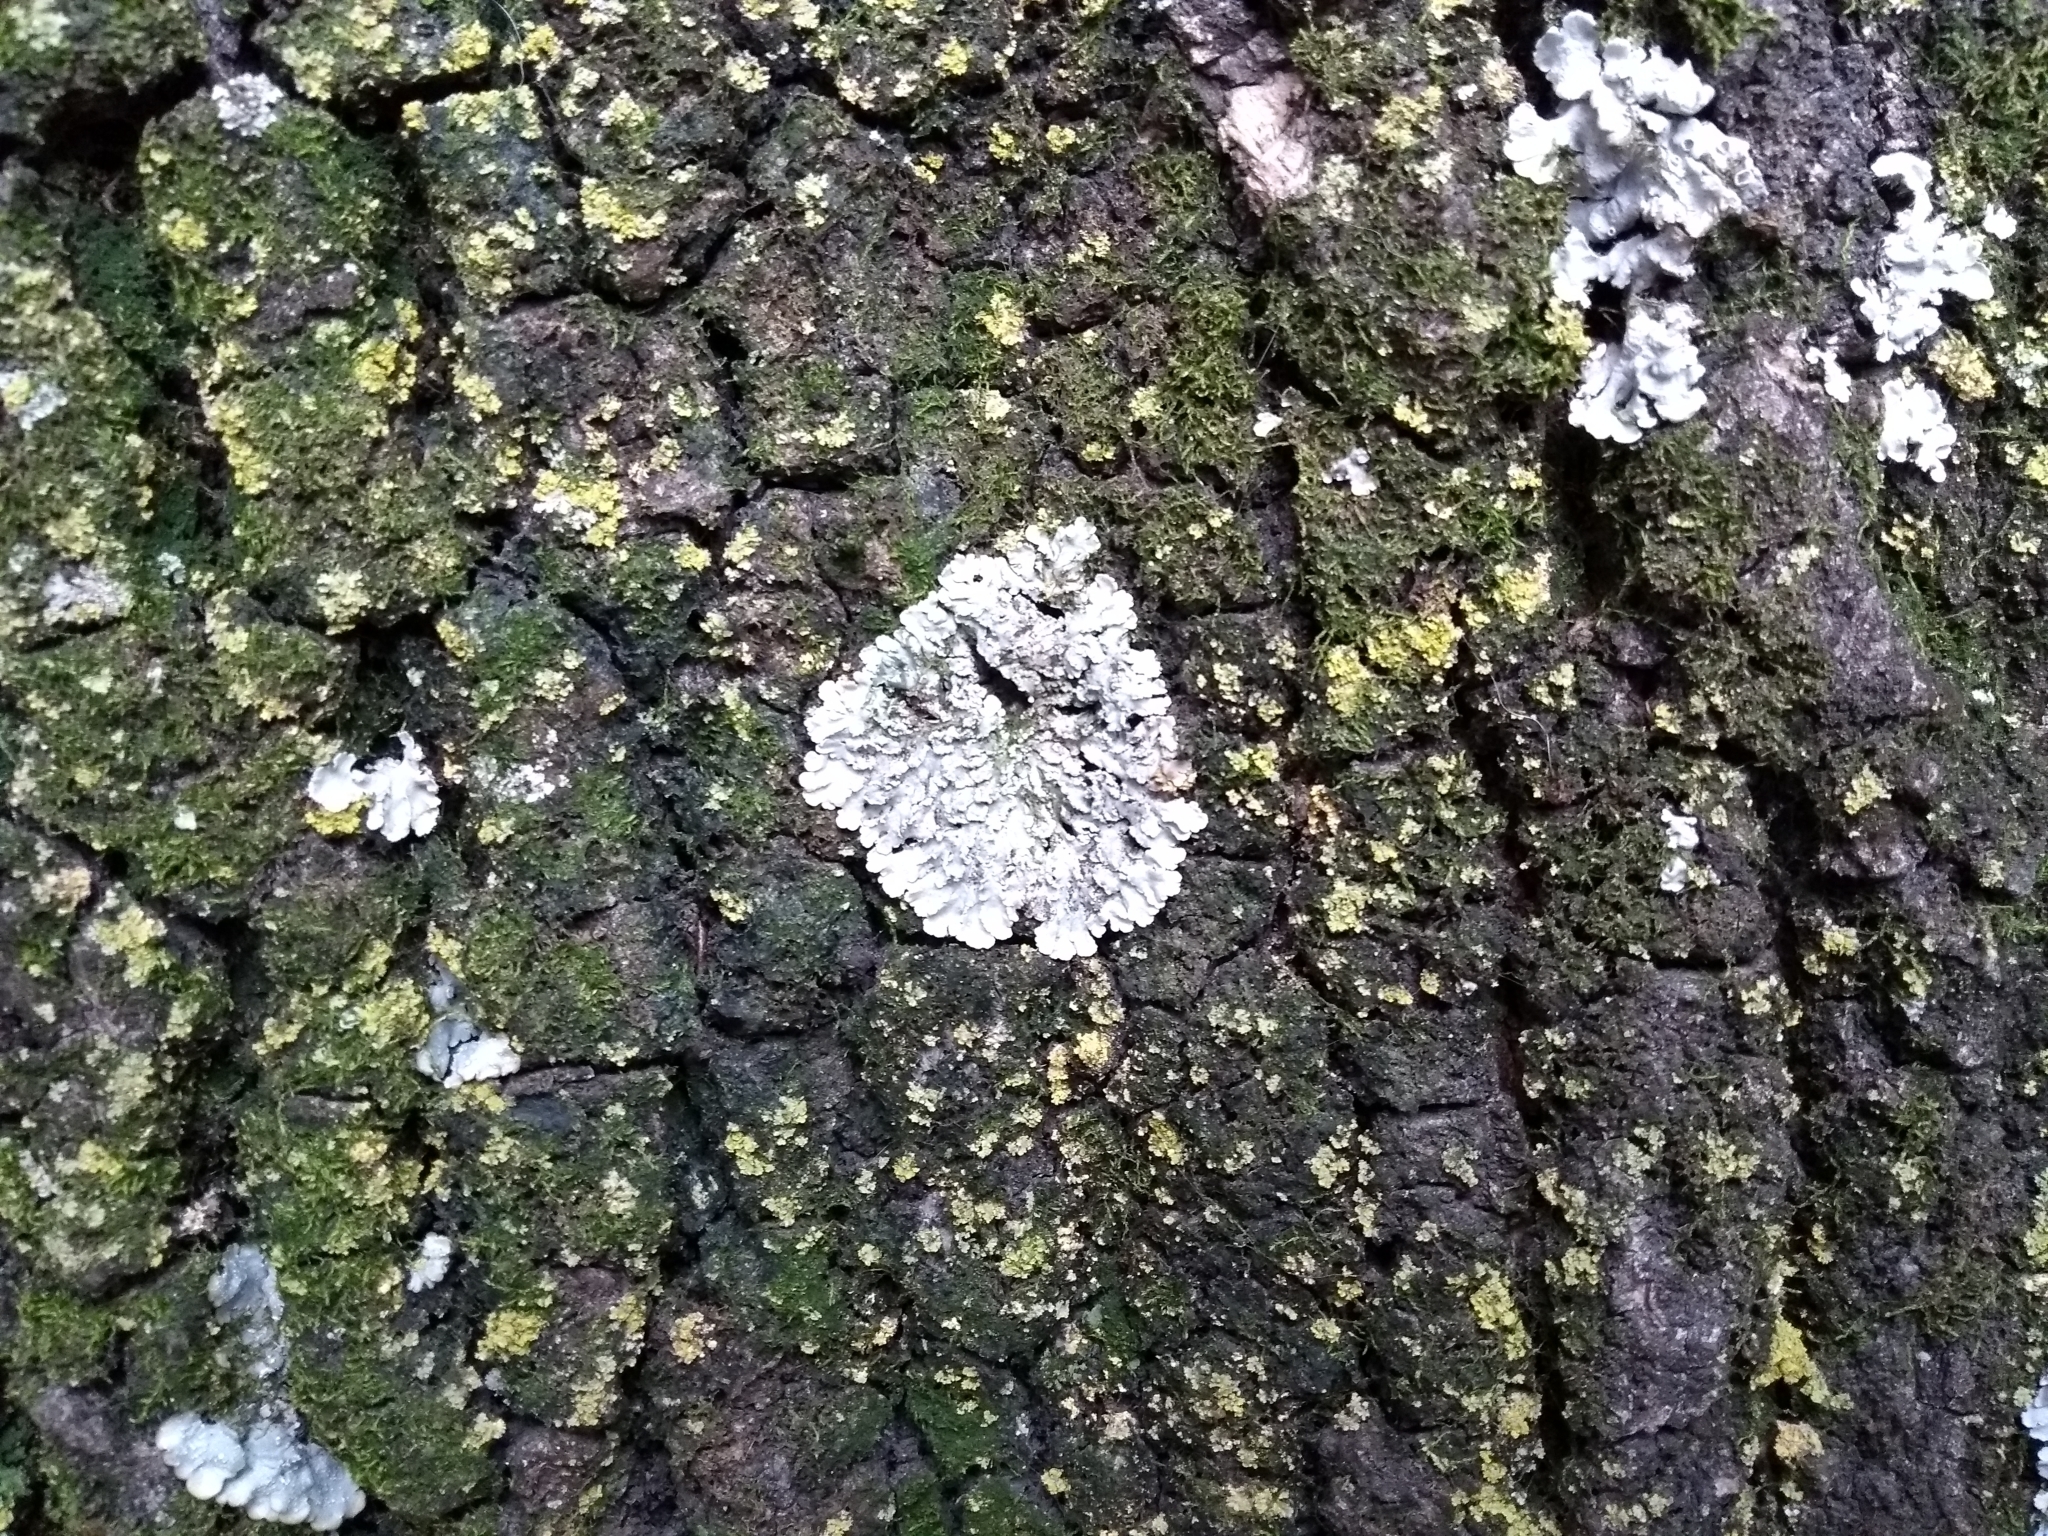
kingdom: Fungi
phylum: Ascomycota
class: Lecanoromycetes
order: Caliciales
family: Physciaceae
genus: Physcia
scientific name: Physcia millegrana
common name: Rosette lichen
